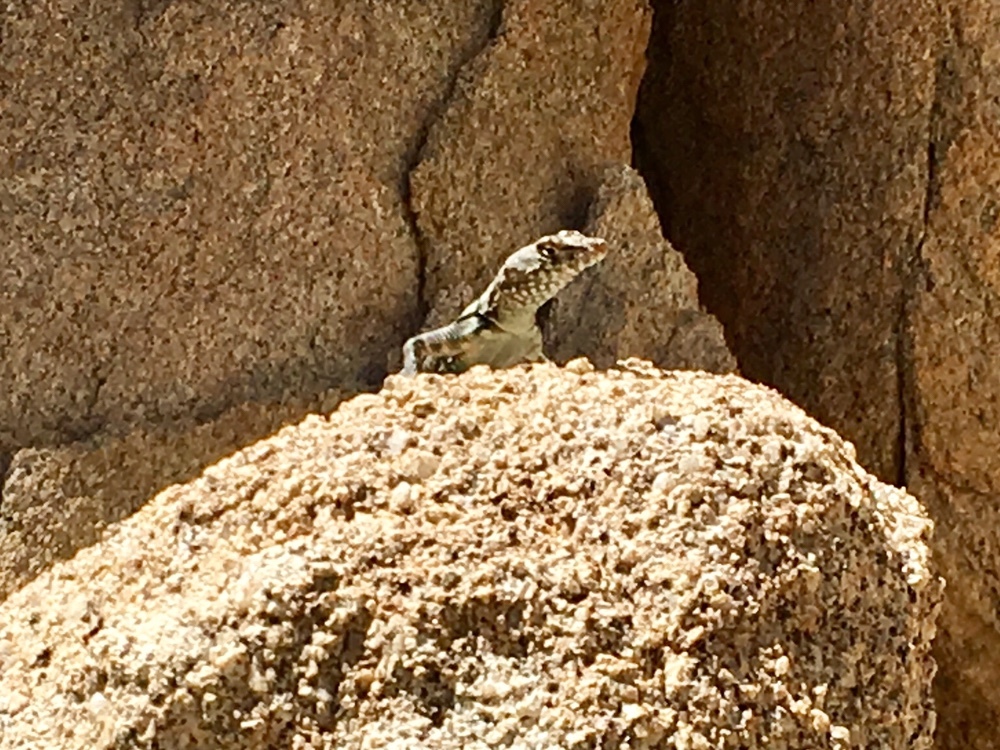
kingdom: Animalia
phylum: Chordata
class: Squamata
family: Phrynosomatidae
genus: Petrosaurus
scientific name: Petrosaurus mearnsi
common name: Banded rock lizard
